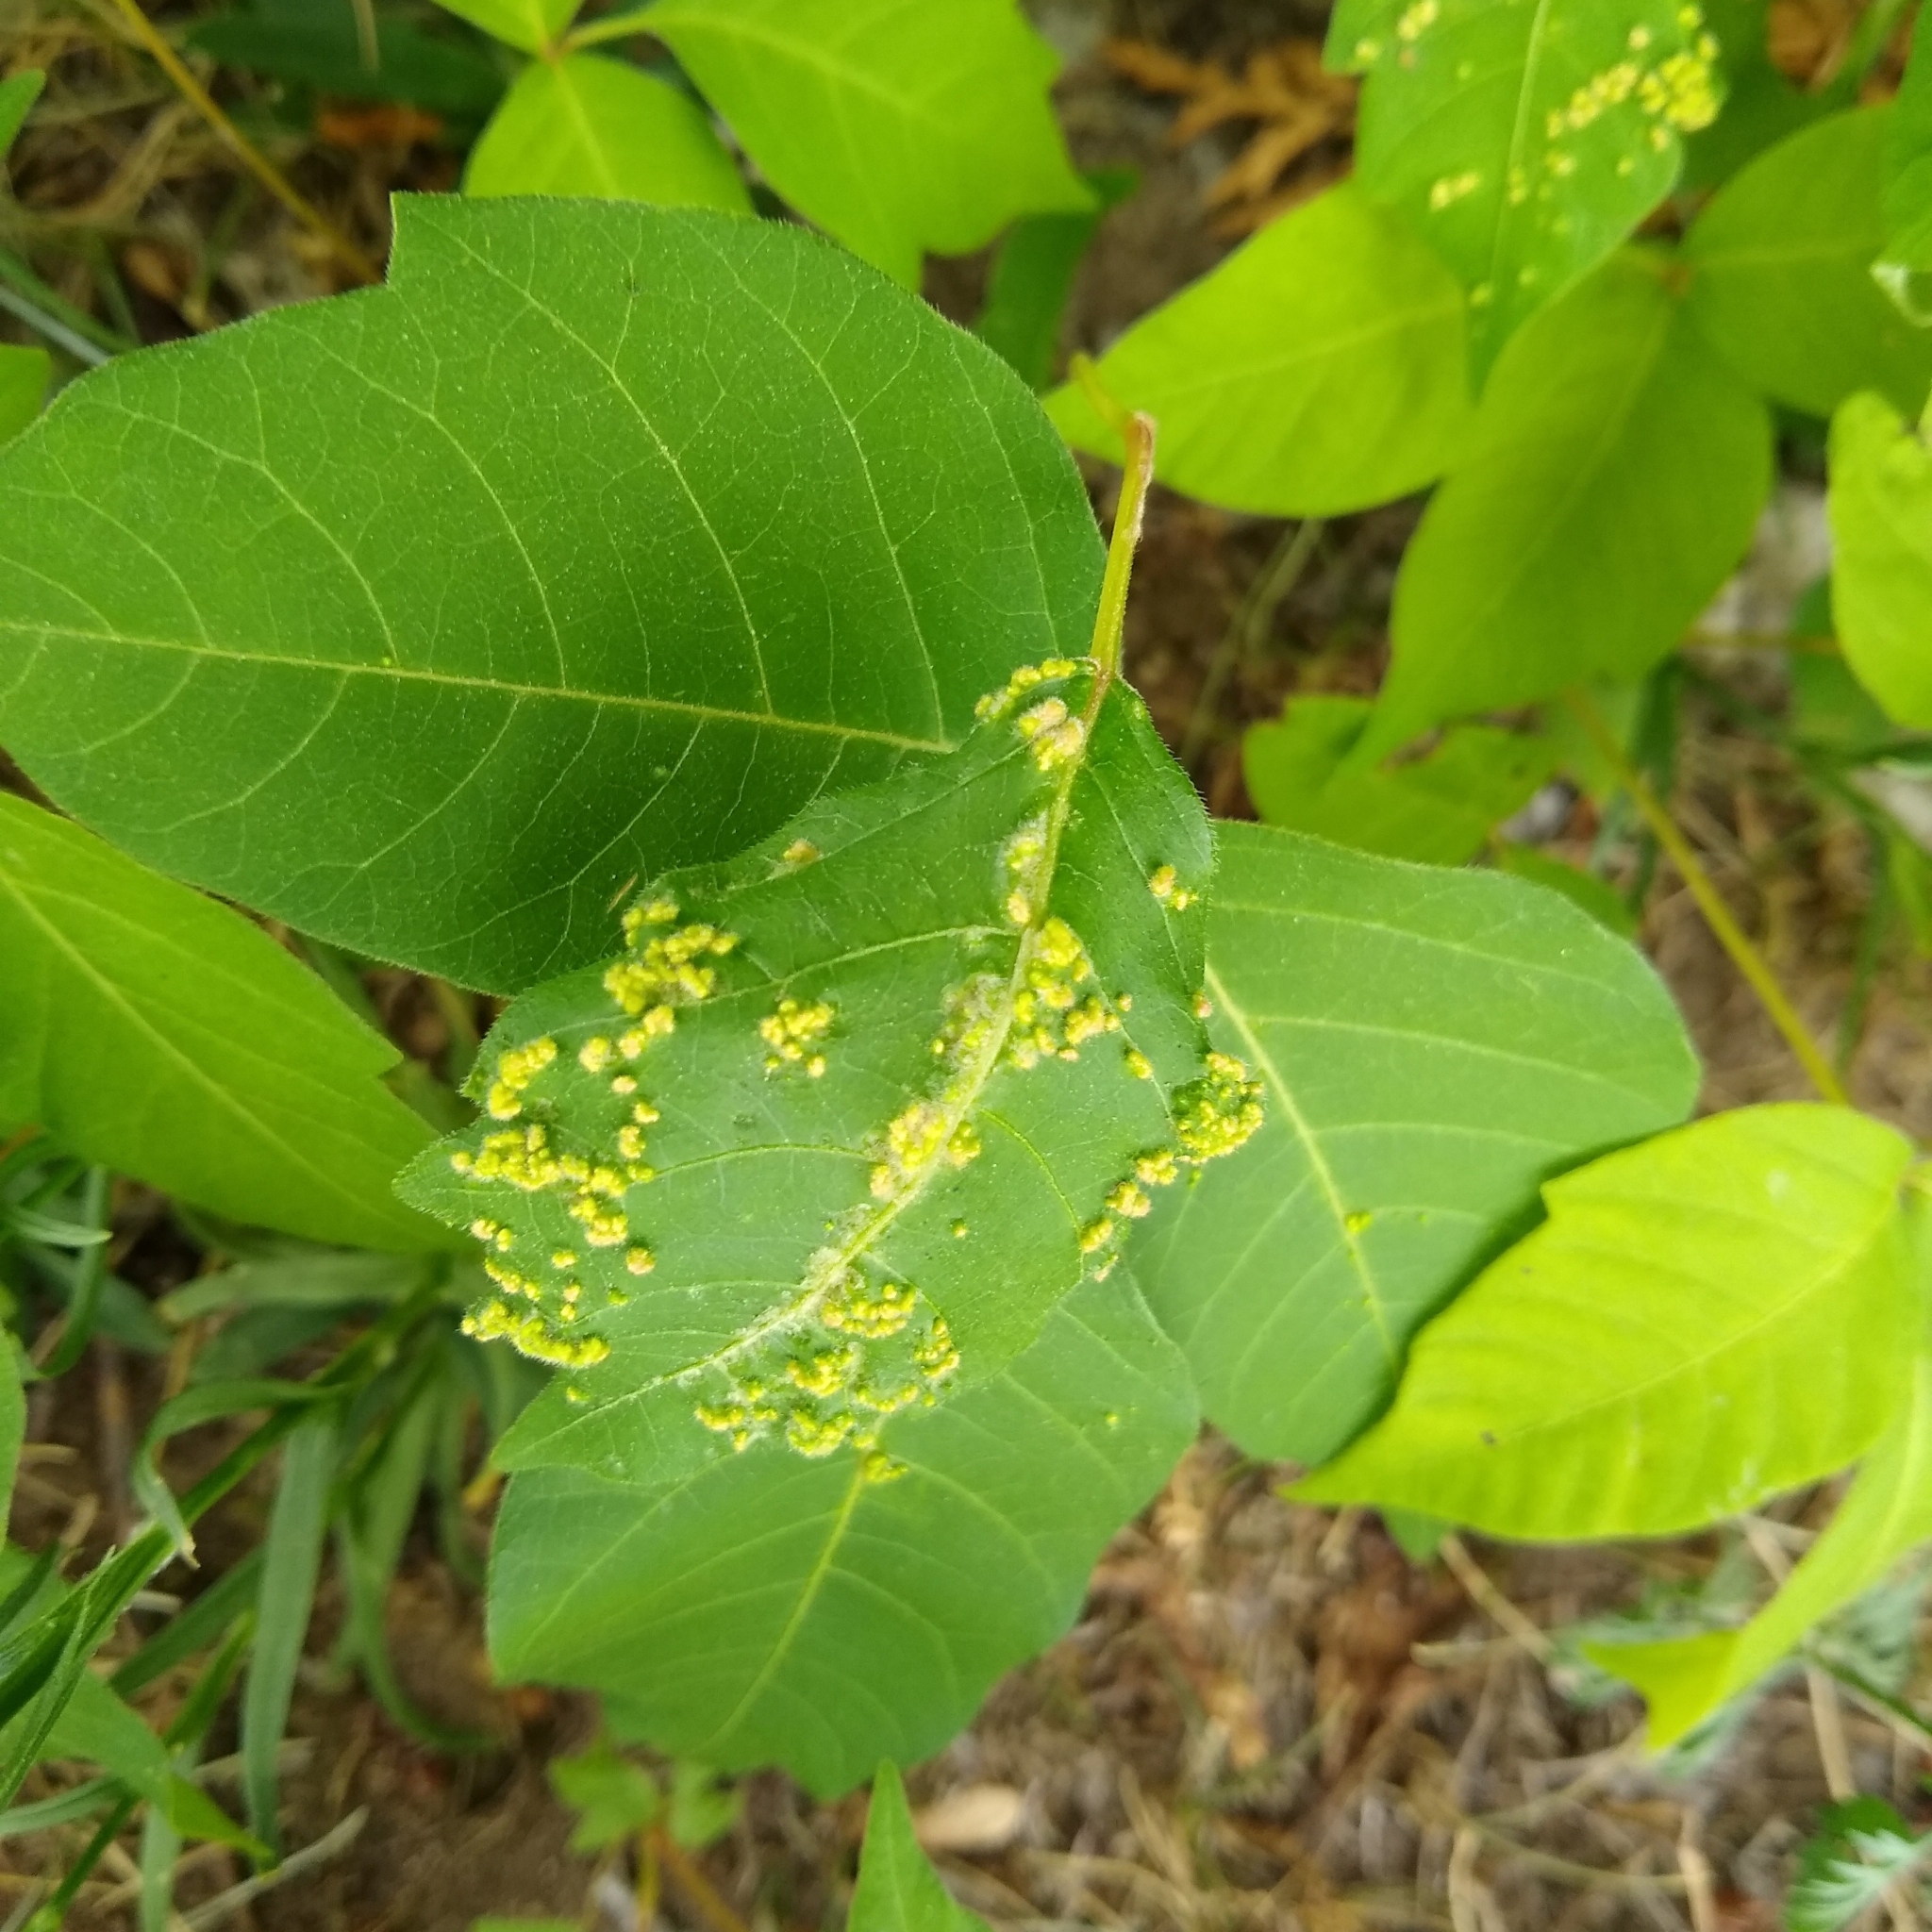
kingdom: Animalia
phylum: Arthropoda
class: Arachnida
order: Trombidiformes
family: Eriophyidae
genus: Aculops
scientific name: Aculops
